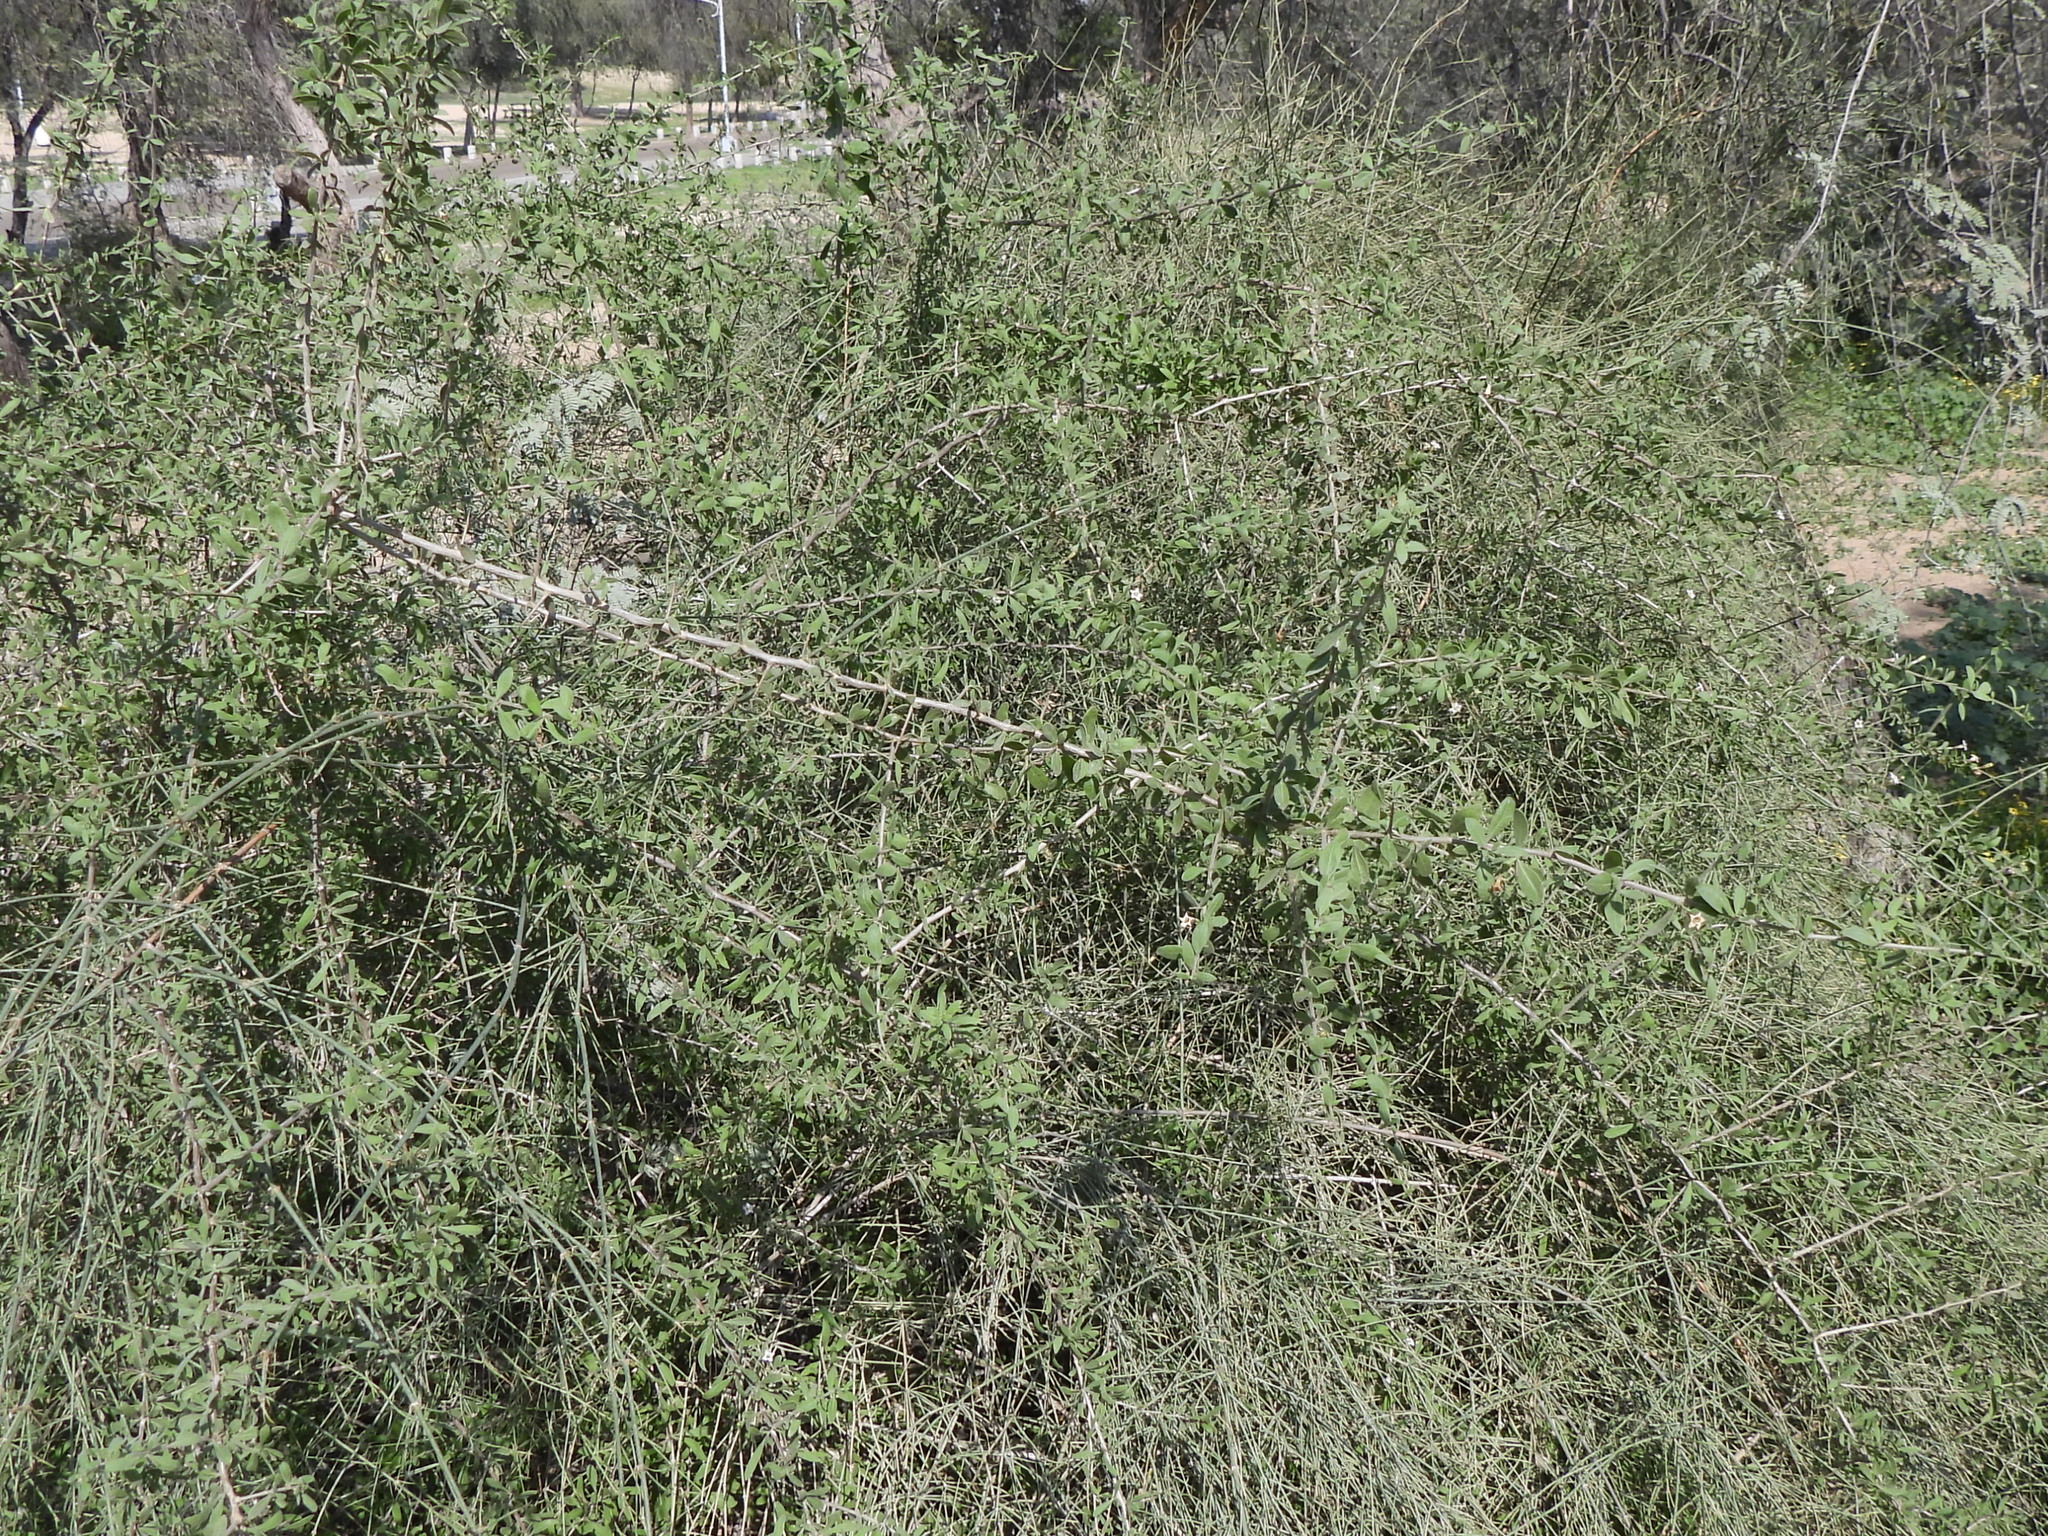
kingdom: Plantae
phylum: Tracheophyta
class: Magnoliopsida
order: Solanales
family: Solanaceae
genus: Lycium
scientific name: Lycium shawii
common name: Boxthorn
